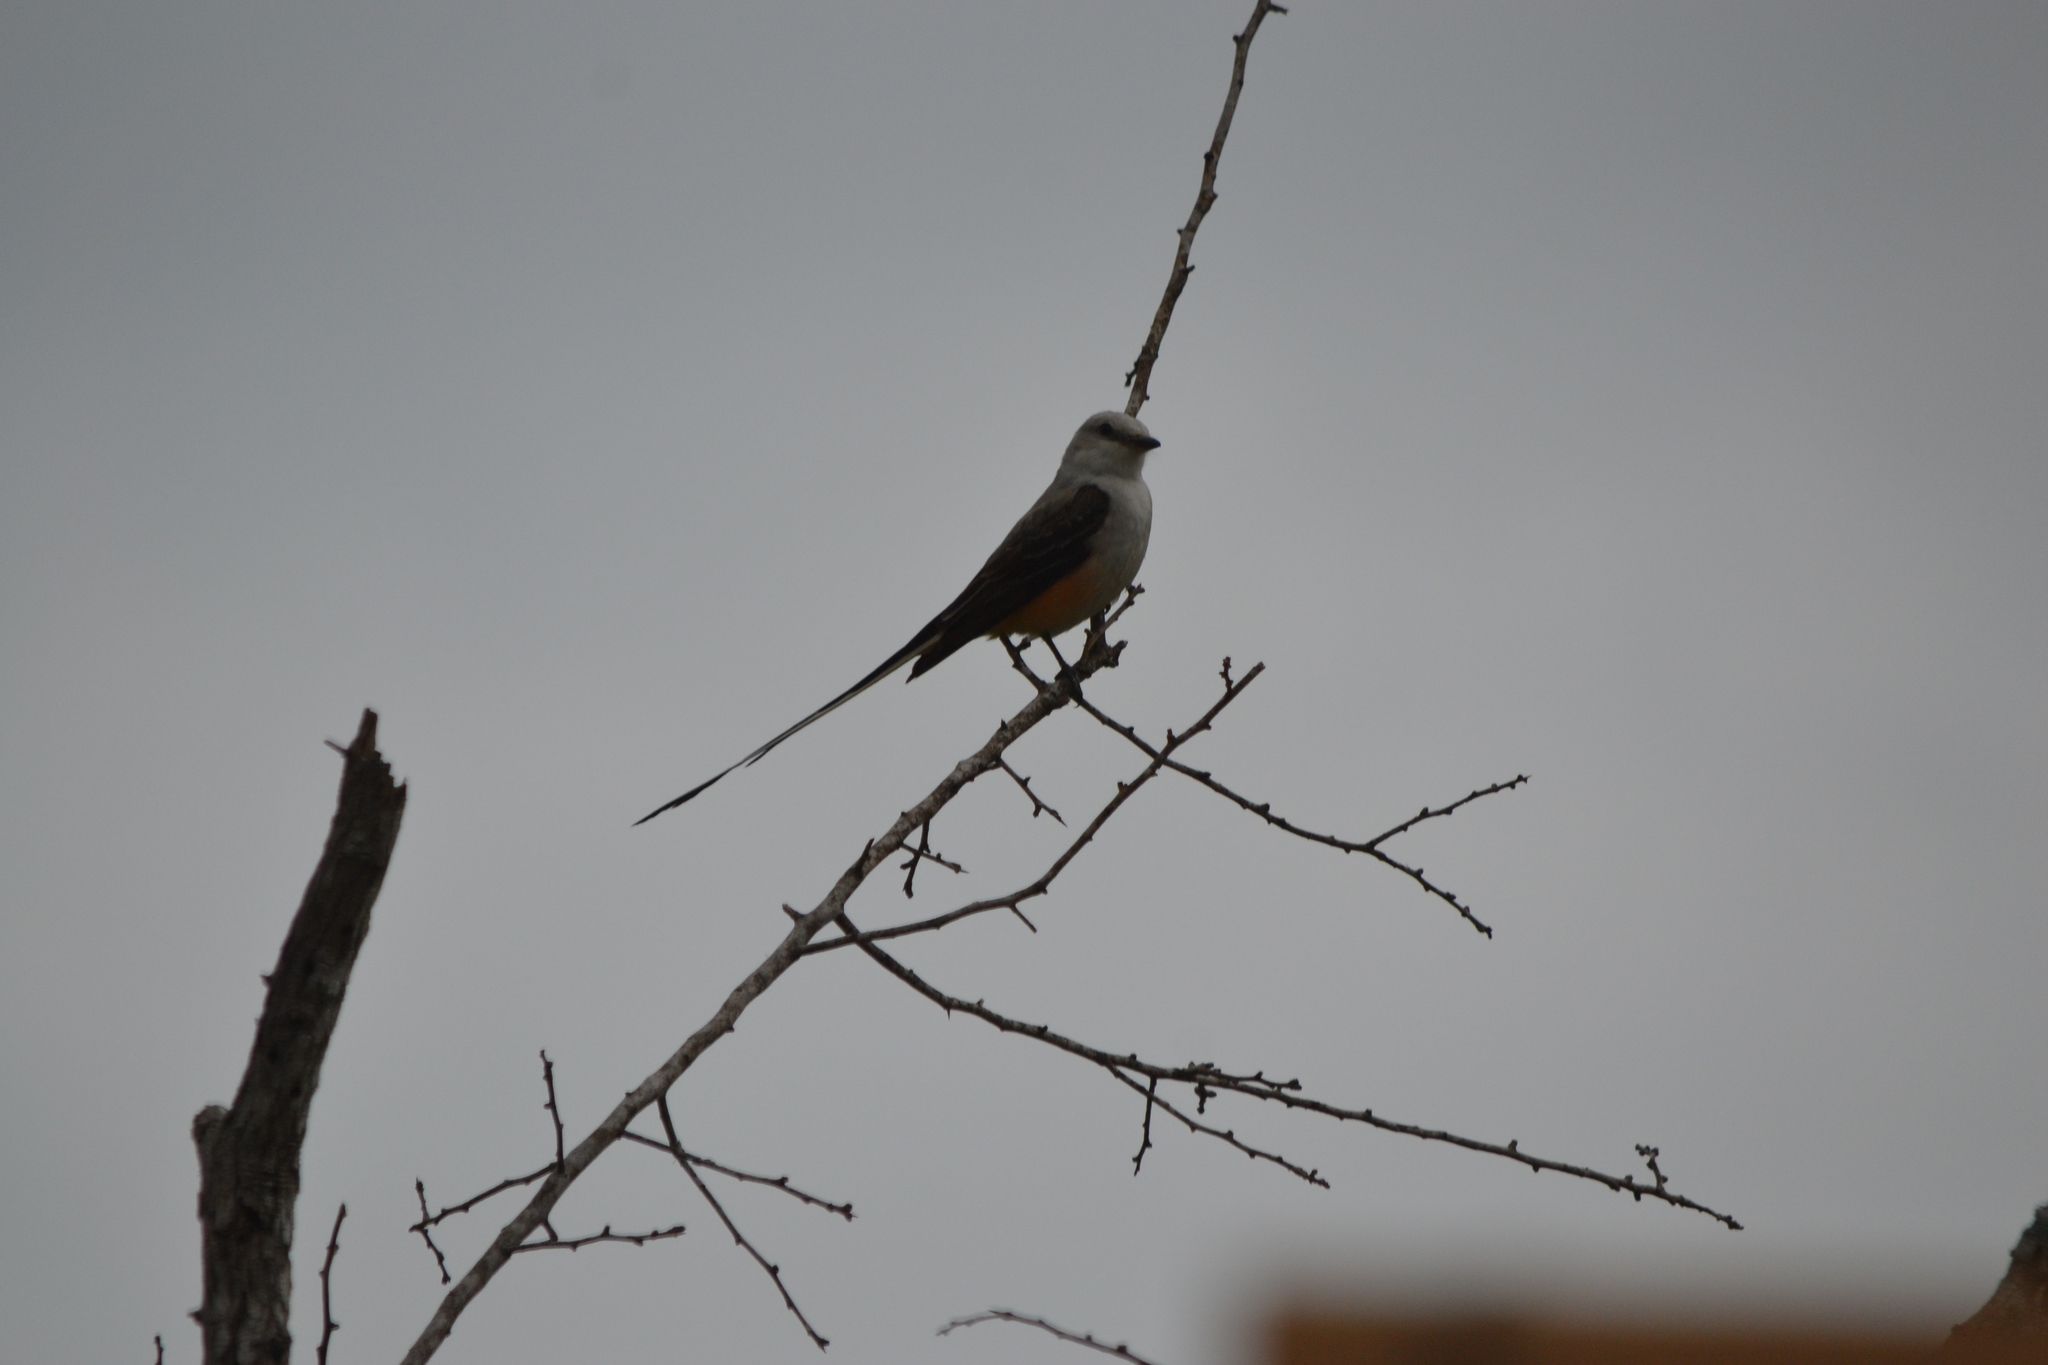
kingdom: Animalia
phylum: Chordata
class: Aves
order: Passeriformes
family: Tyrannidae
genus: Tyrannus
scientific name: Tyrannus forficatus
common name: Scissor-tailed flycatcher
